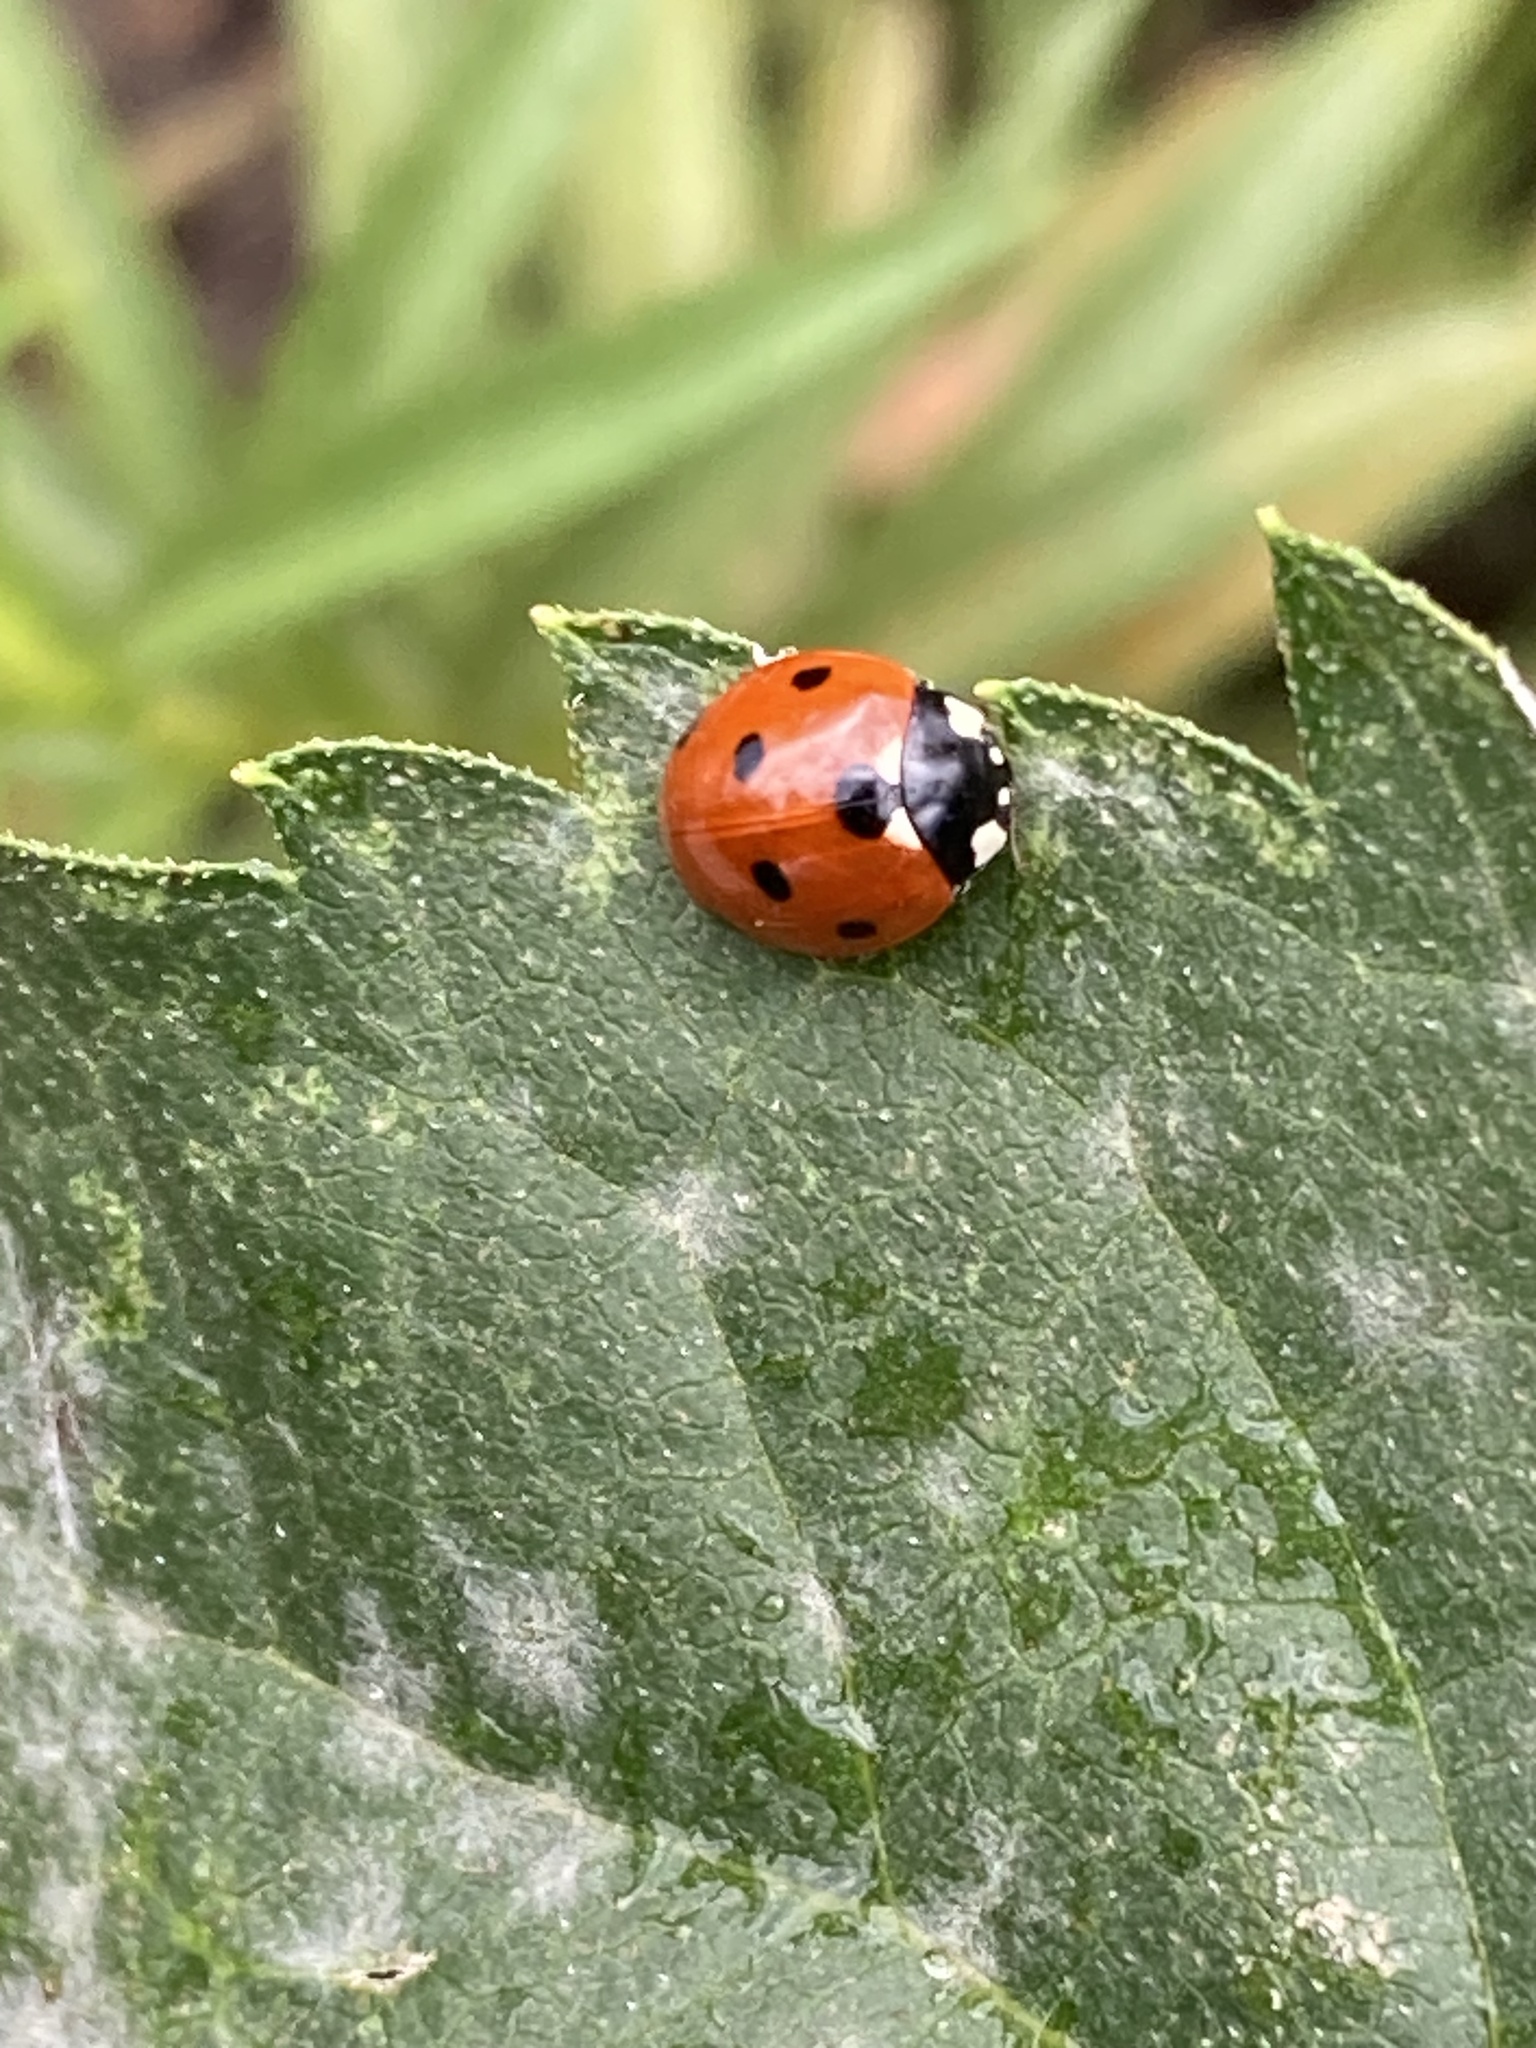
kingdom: Animalia
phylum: Arthropoda
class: Insecta
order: Coleoptera
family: Coccinellidae
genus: Coccinella
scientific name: Coccinella septempunctata
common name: Sevenspotted lady beetle
